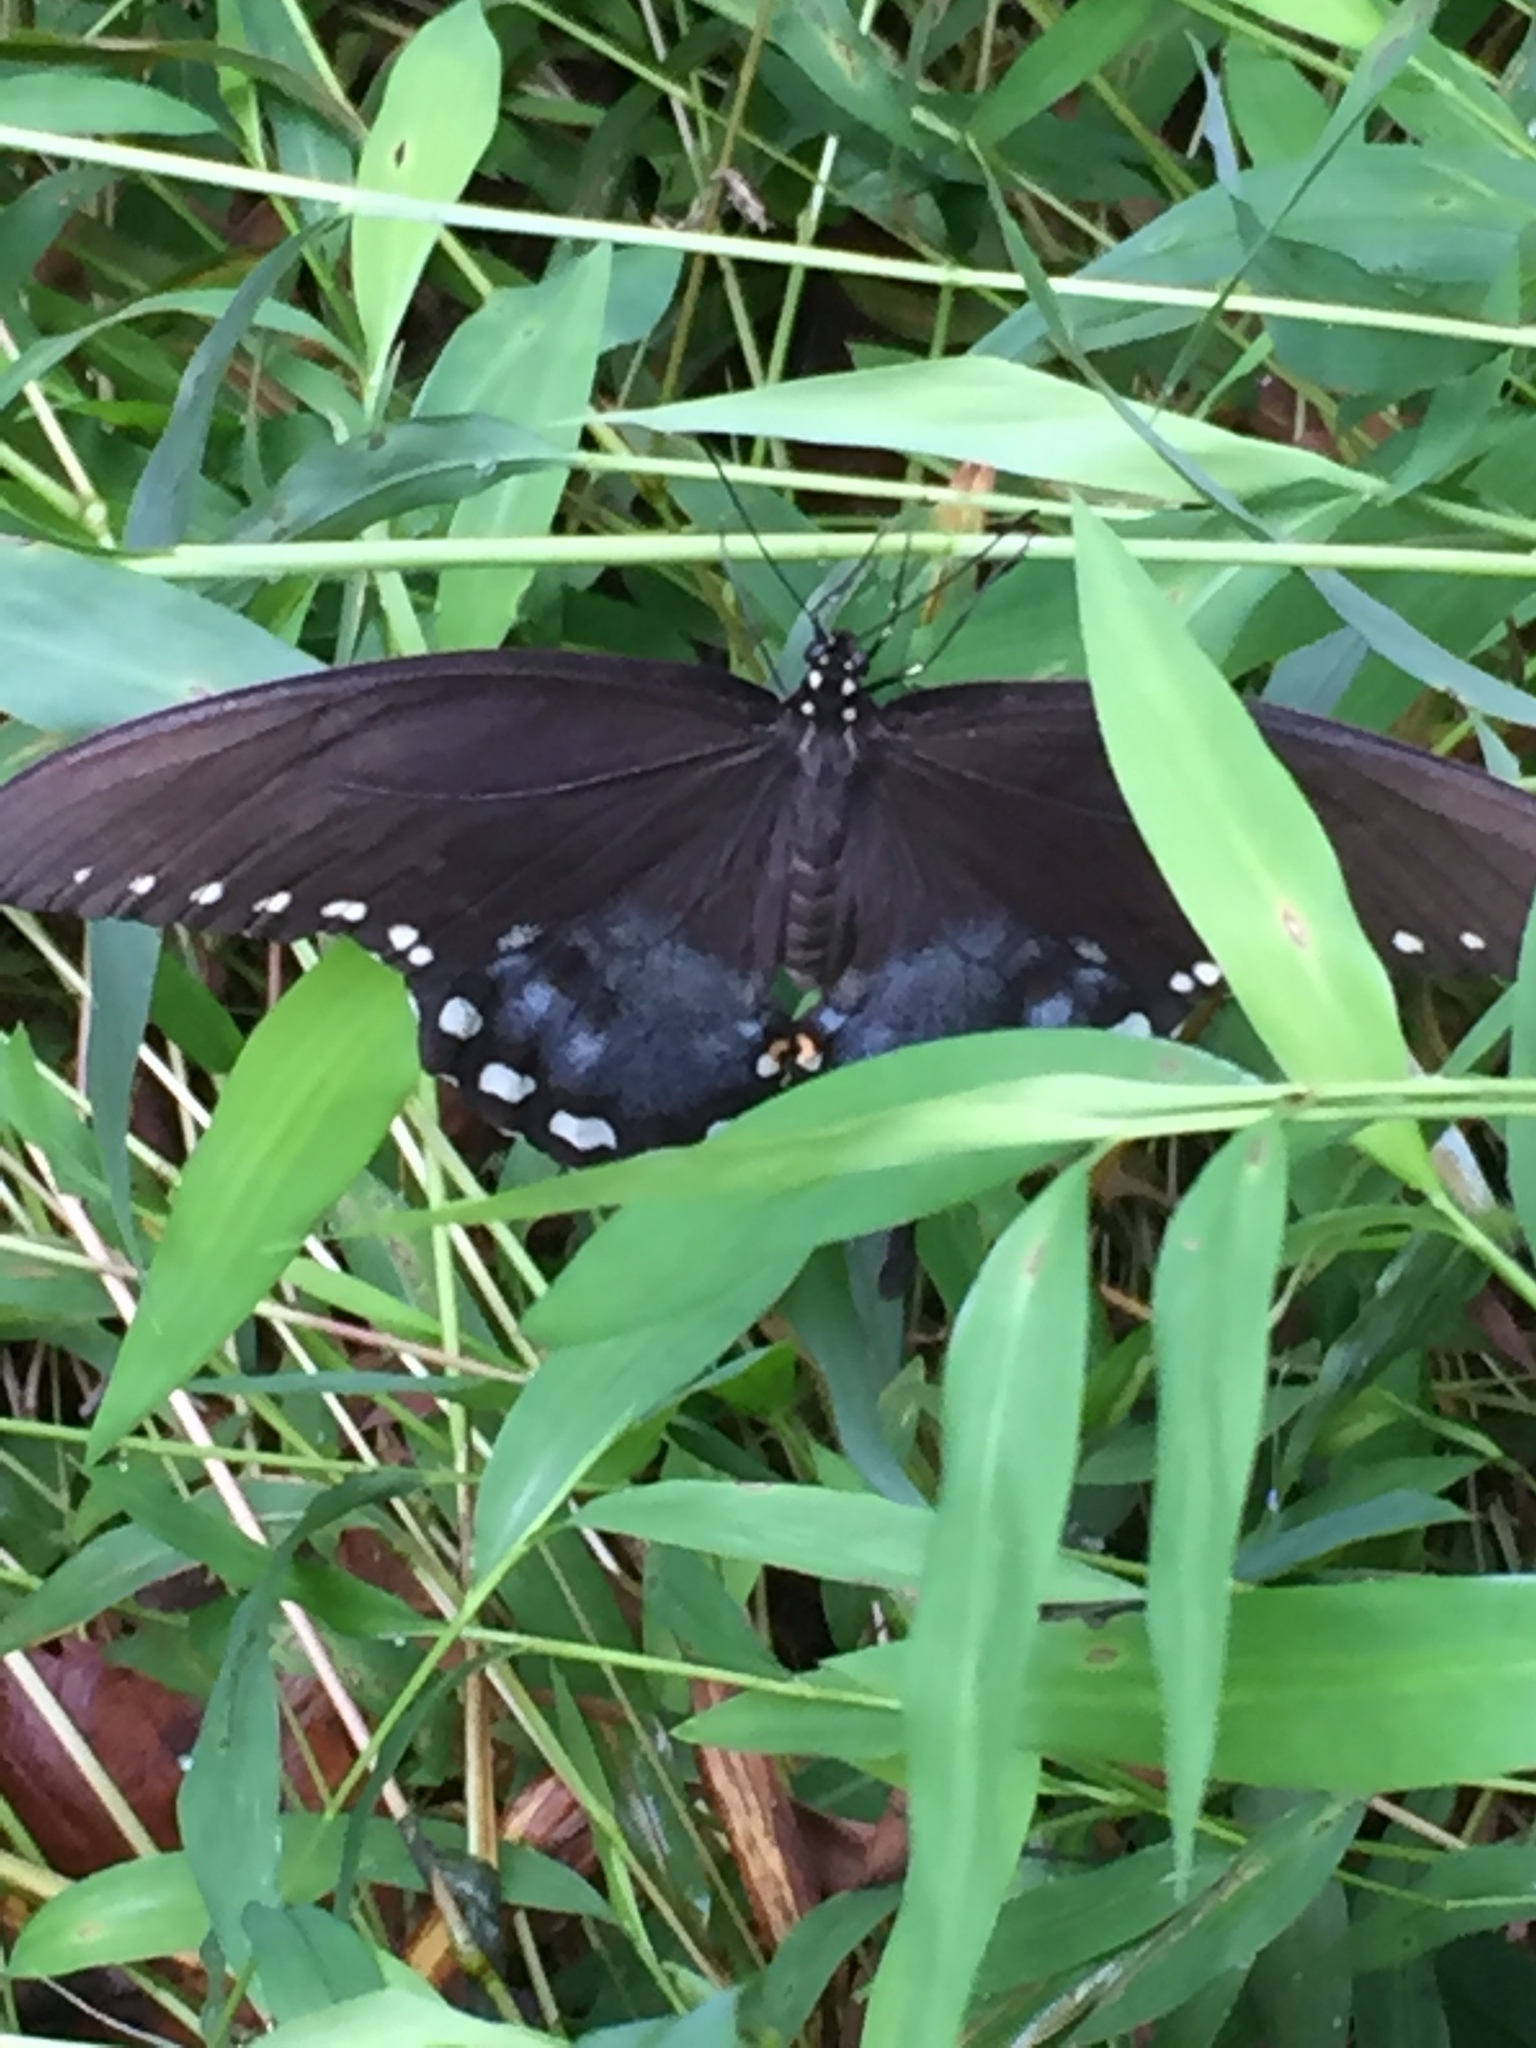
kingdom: Animalia
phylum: Arthropoda
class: Insecta
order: Lepidoptera
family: Papilionidae
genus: Papilio
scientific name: Papilio troilus
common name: Spicebush swallowtail
